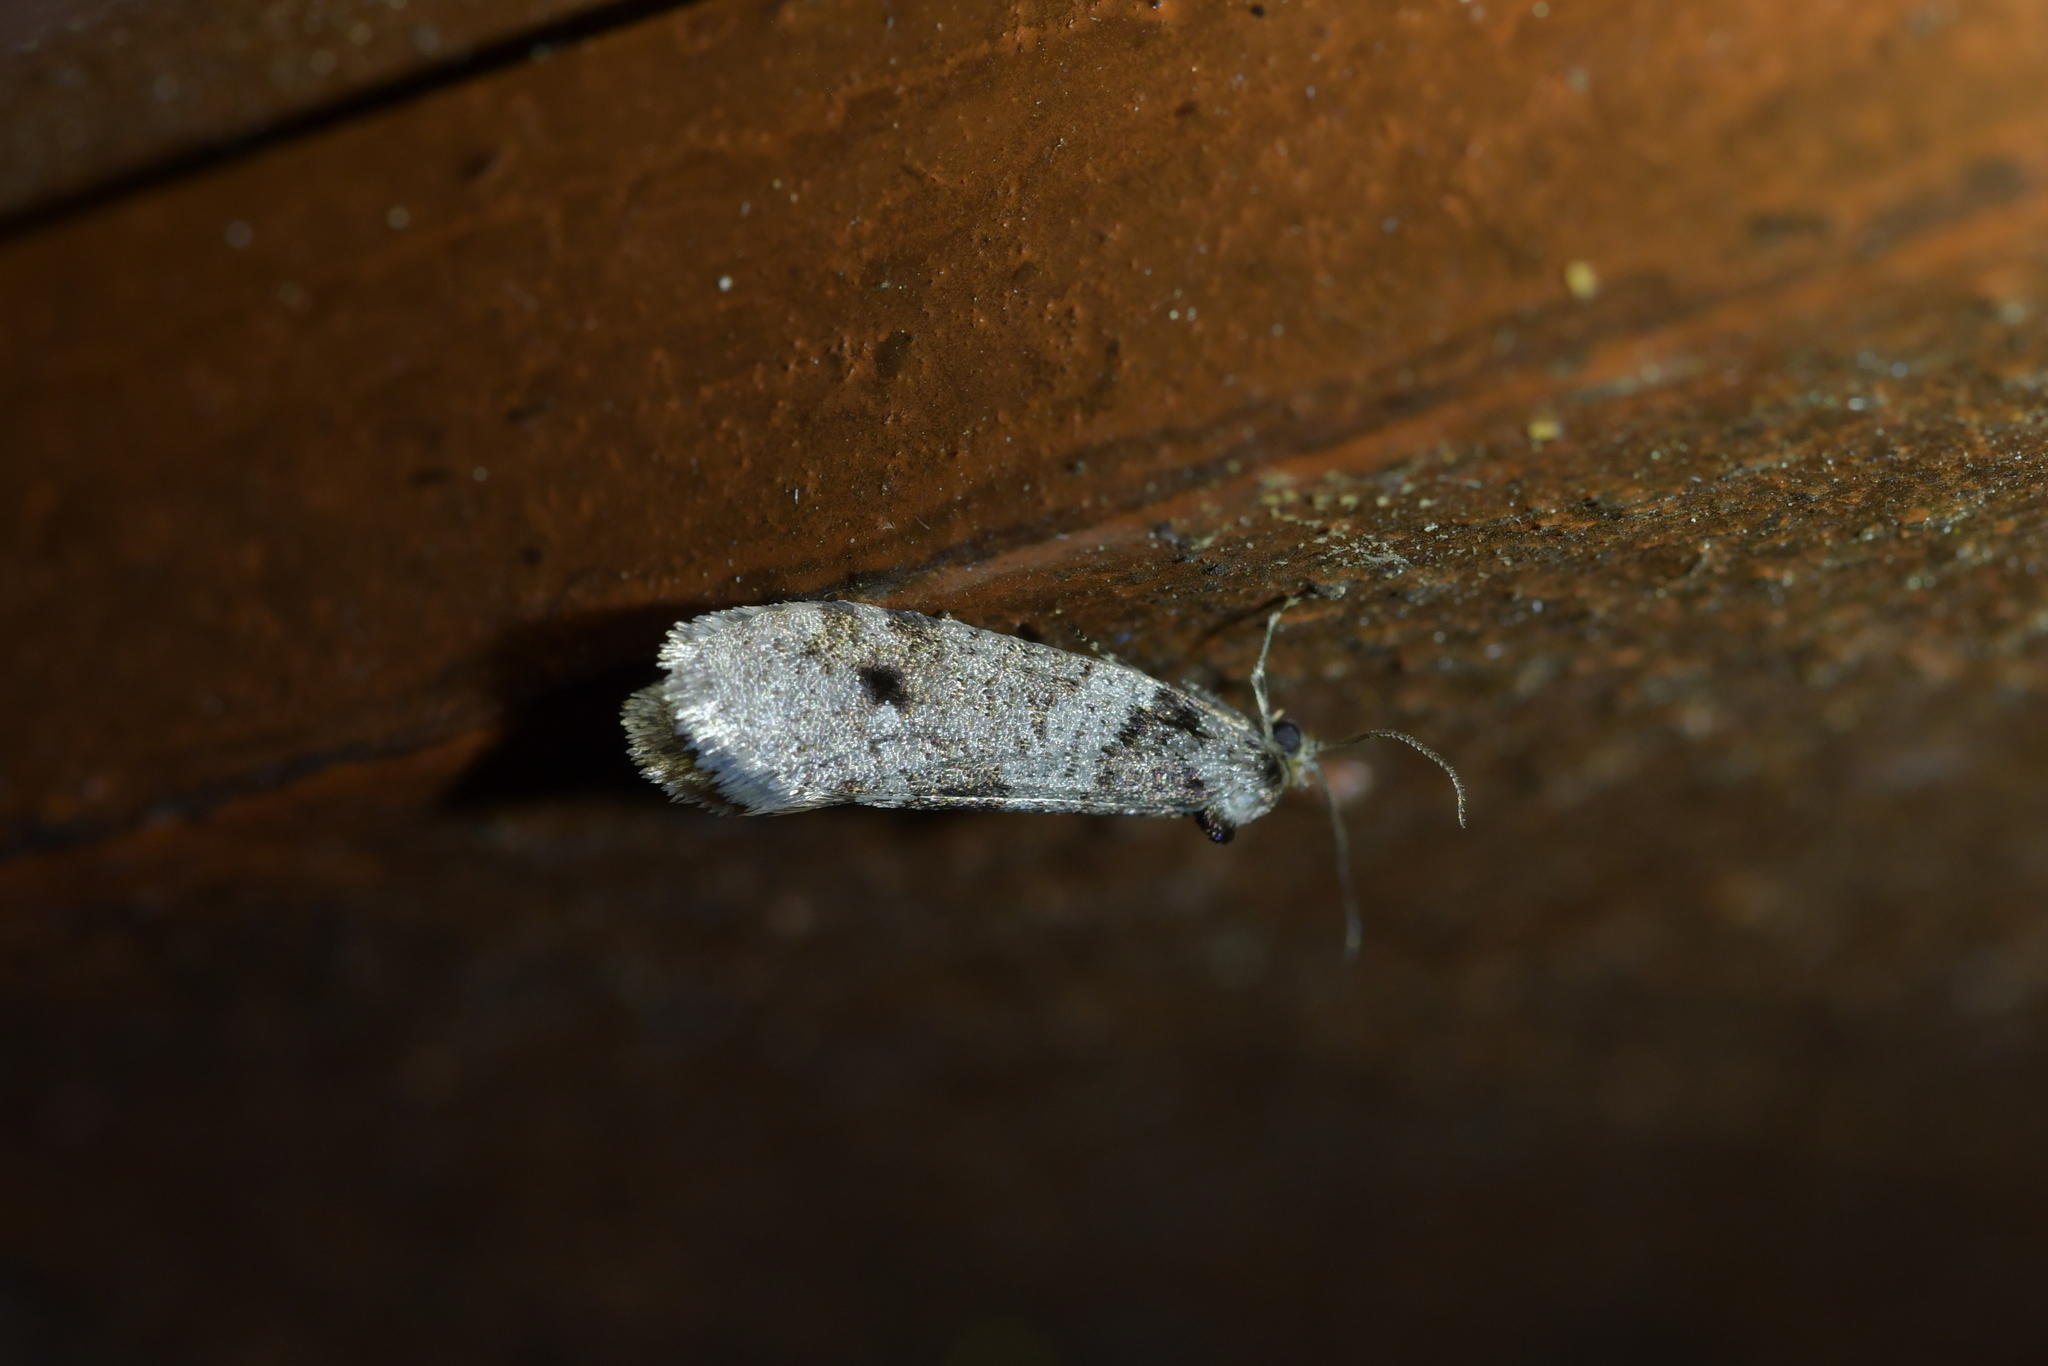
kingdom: Animalia
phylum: Arthropoda
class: Insecta
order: Lepidoptera
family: Psychidae
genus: Lepidoscia
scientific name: Lepidoscia heliochares
